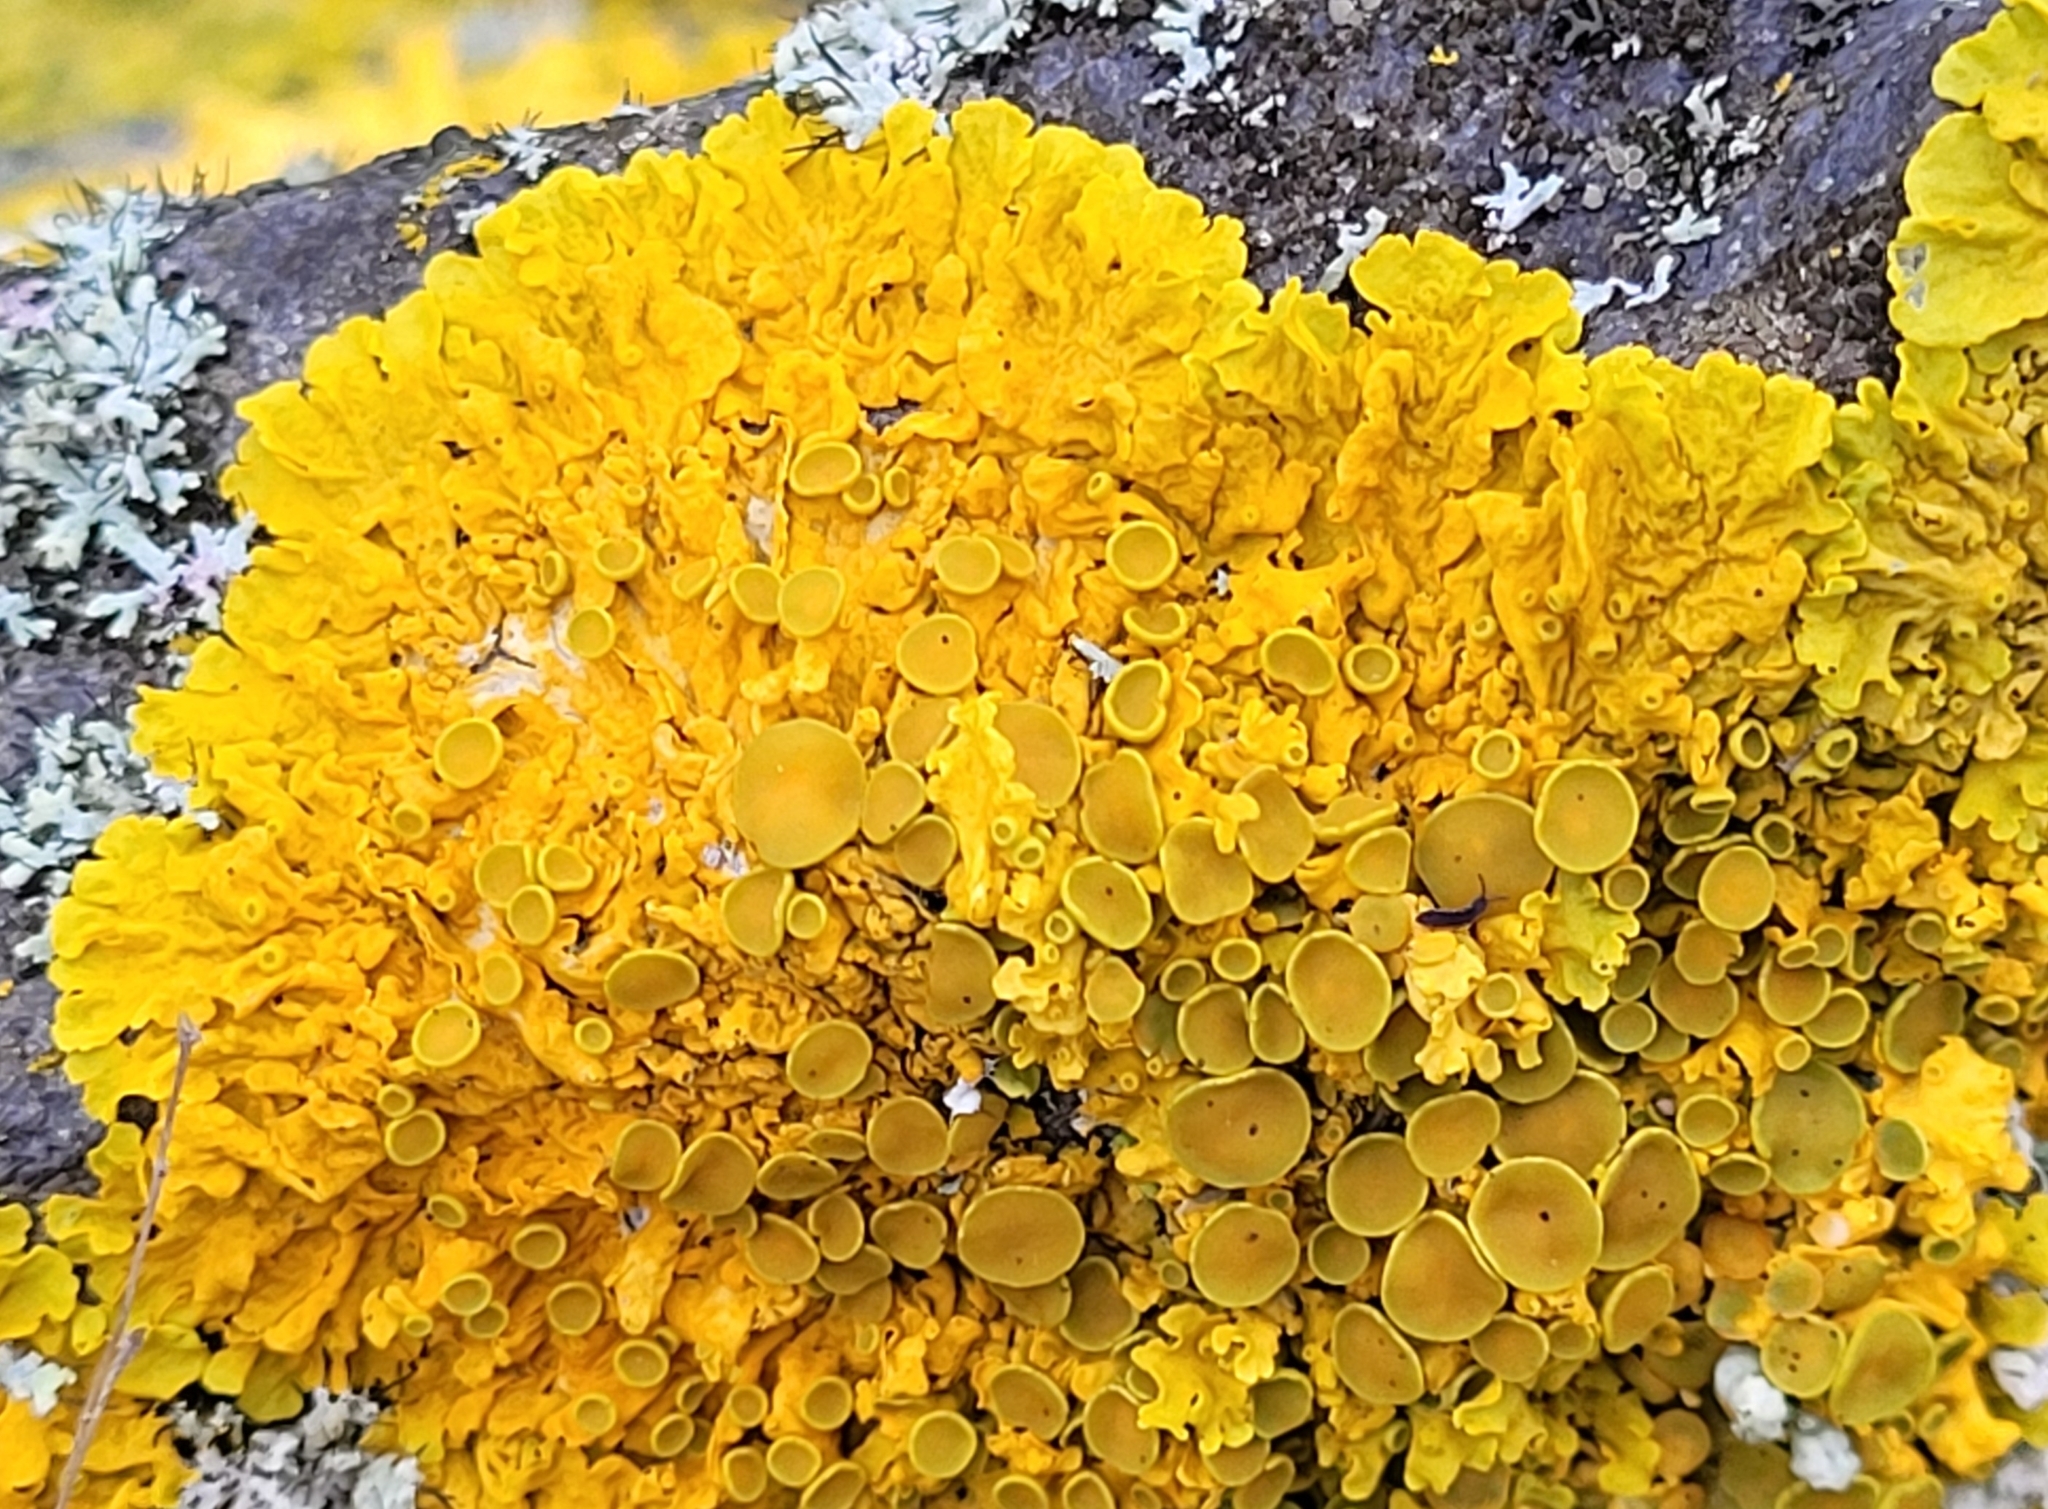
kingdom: Fungi
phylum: Ascomycota
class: Lecanoromycetes
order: Teloschistales
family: Teloschistaceae
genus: Xanthoria
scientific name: Xanthoria parietina
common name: Common orange lichen
